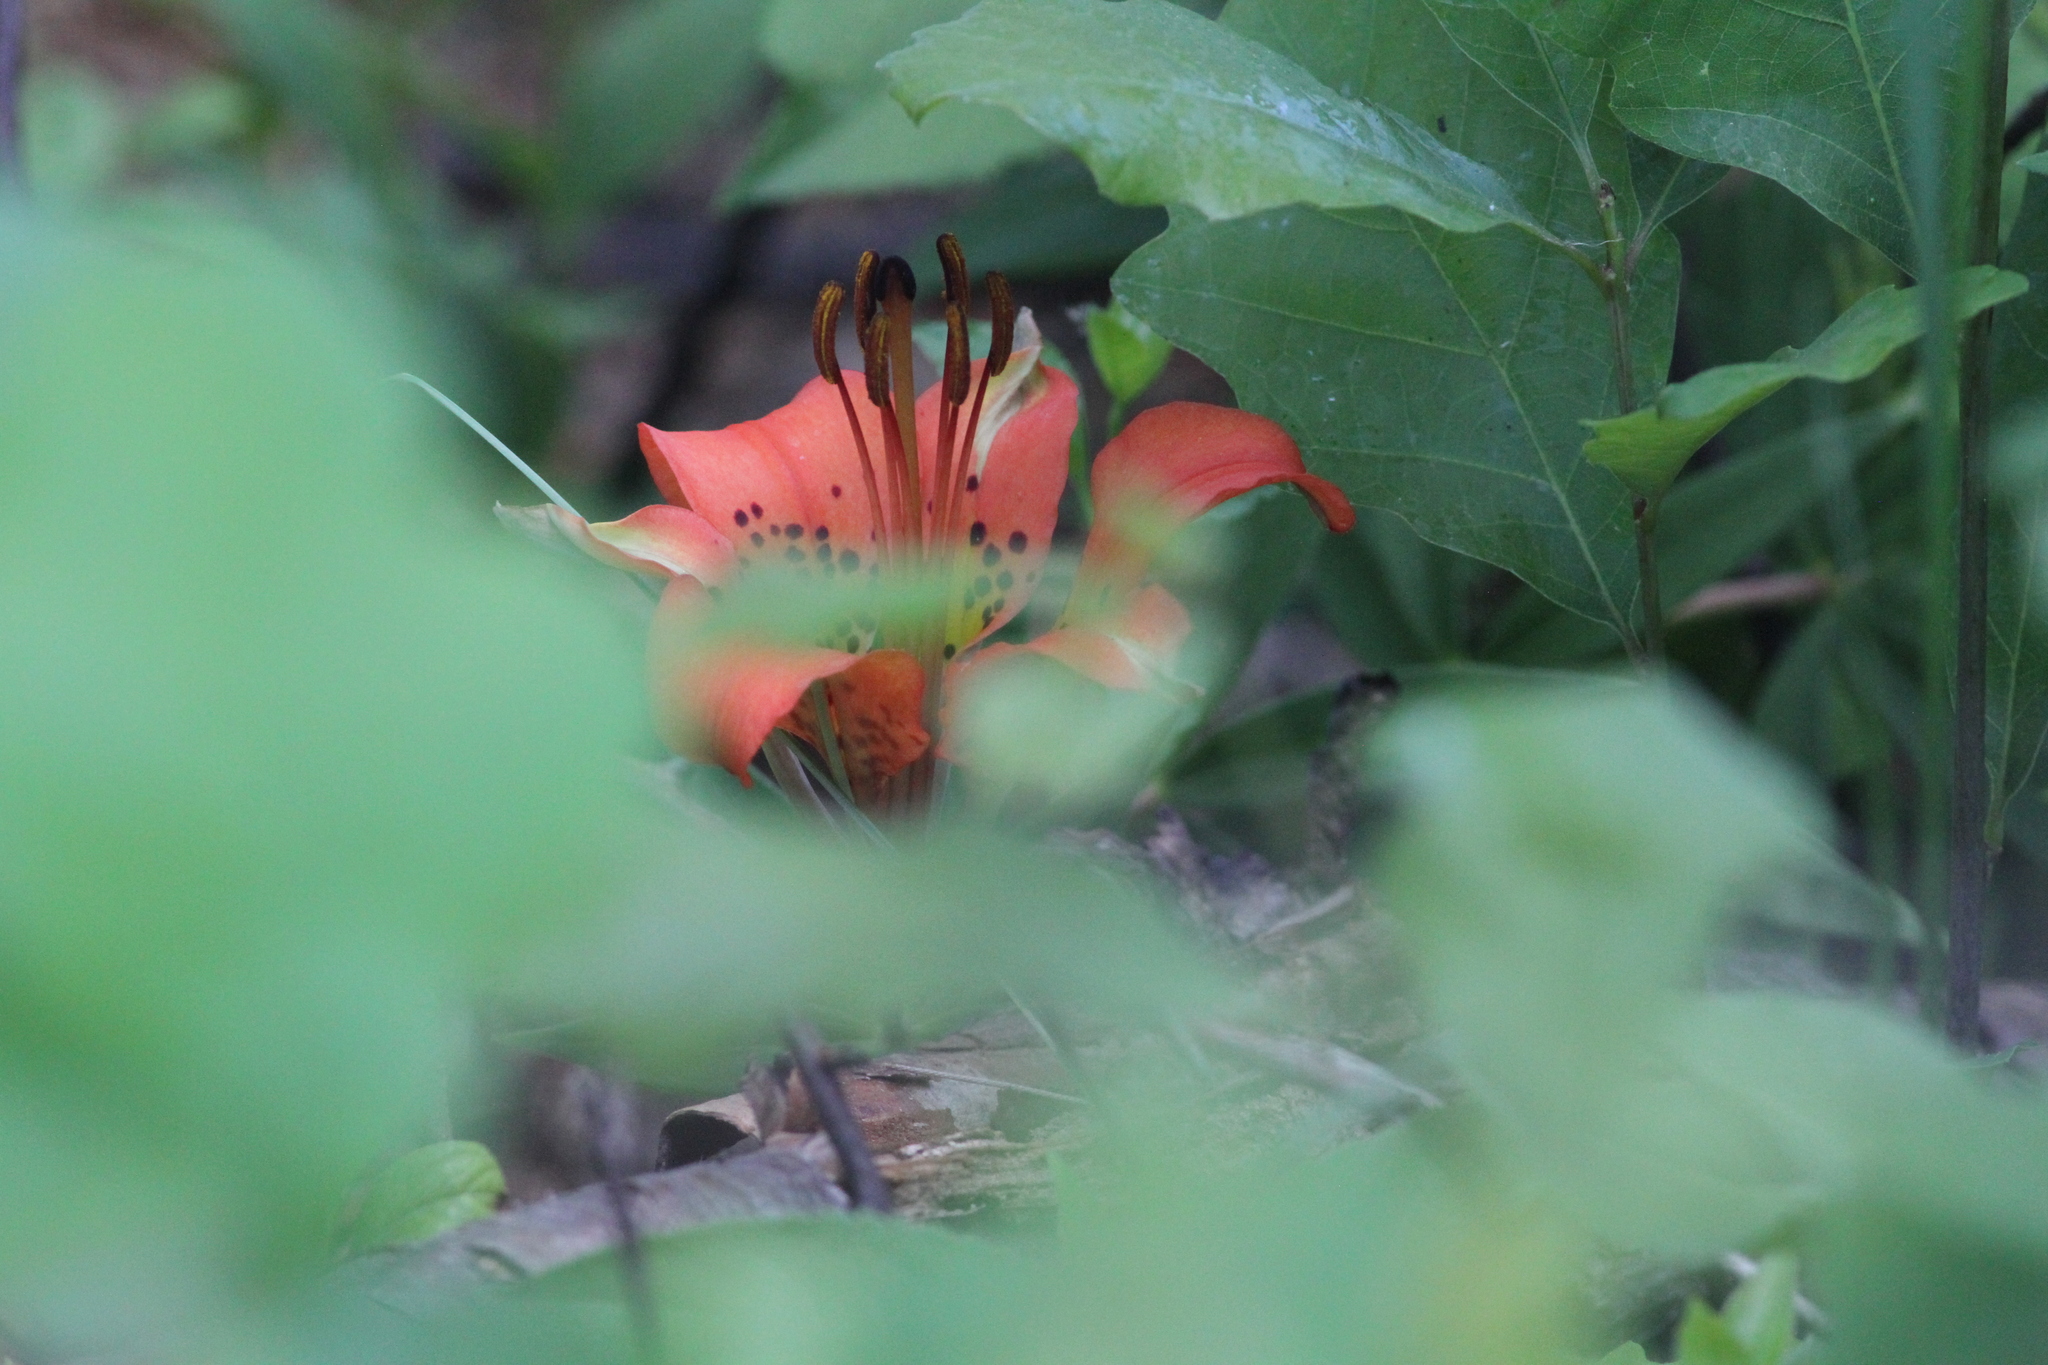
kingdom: Plantae
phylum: Tracheophyta
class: Liliopsida
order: Liliales
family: Liliaceae
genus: Lilium
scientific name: Lilium philadelphicum
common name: Red lily
